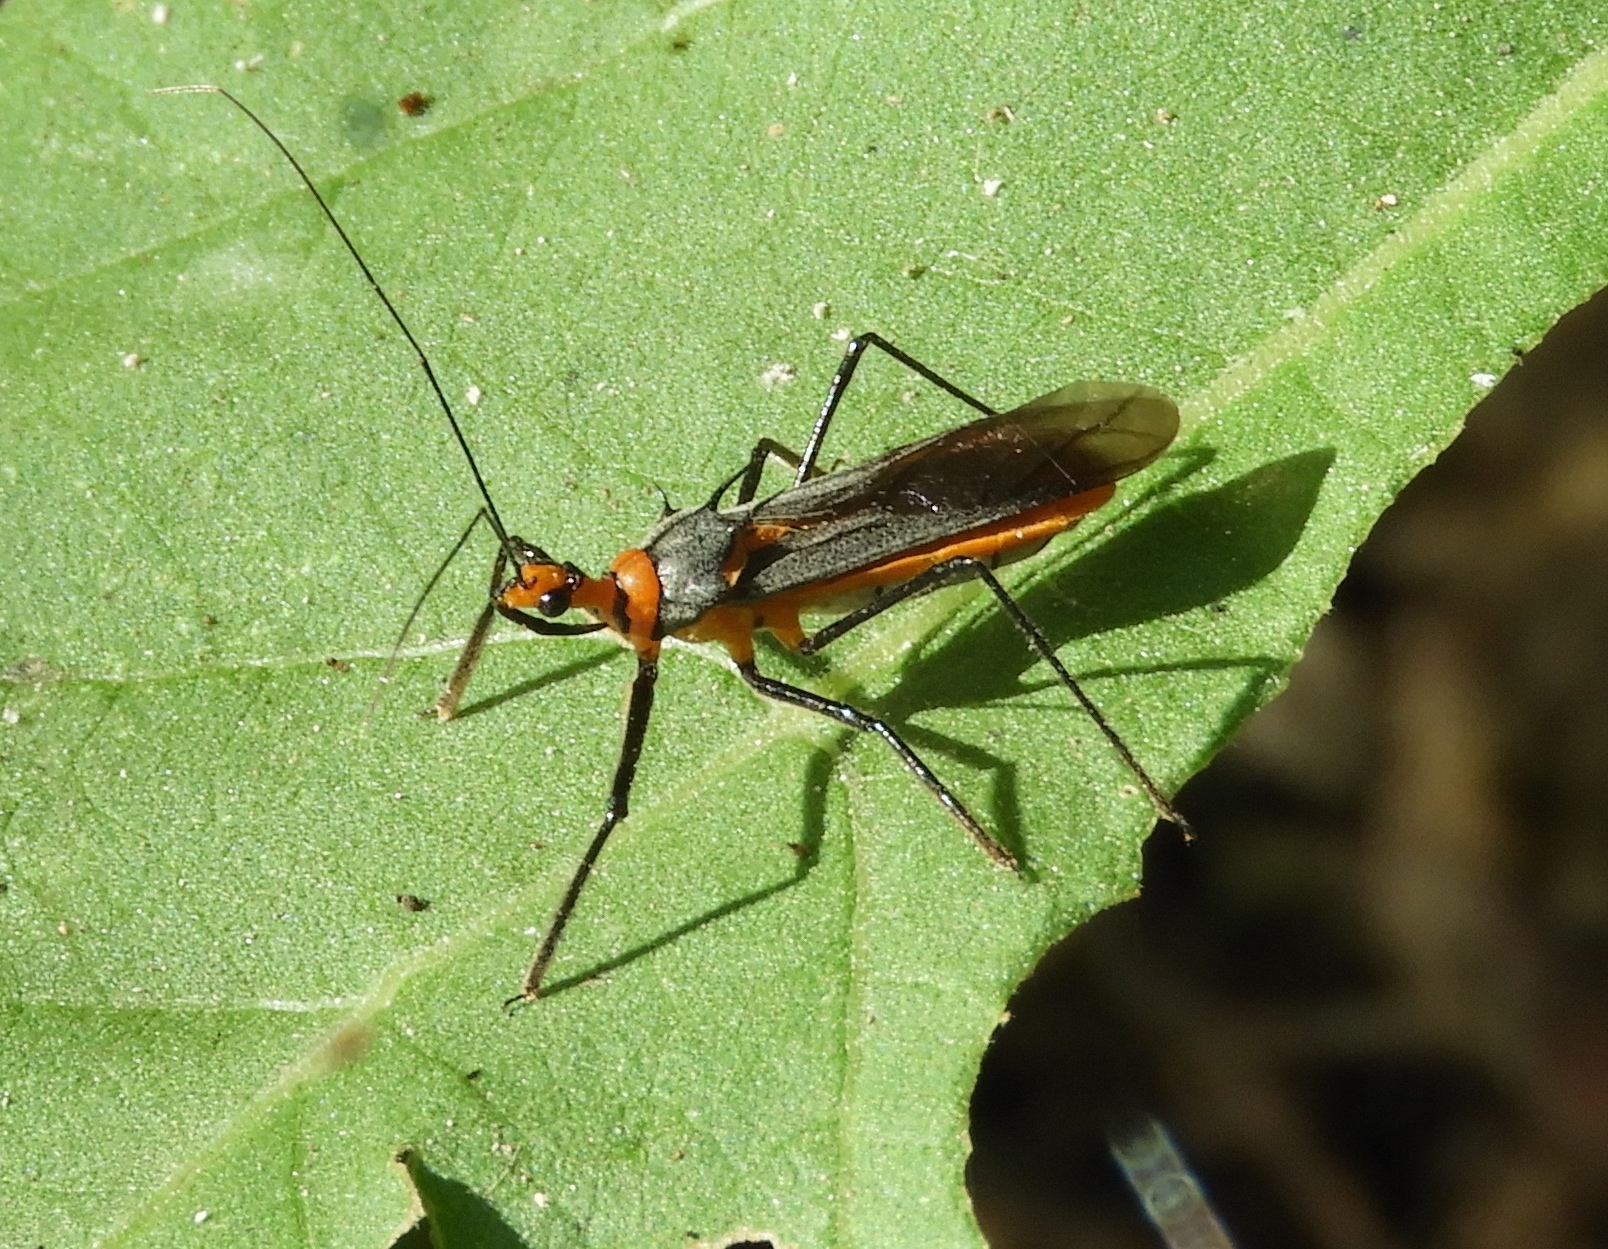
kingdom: Animalia
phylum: Arthropoda
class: Insecta
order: Hemiptera
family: Reduviidae
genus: Repipta
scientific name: Repipta fuscipes
